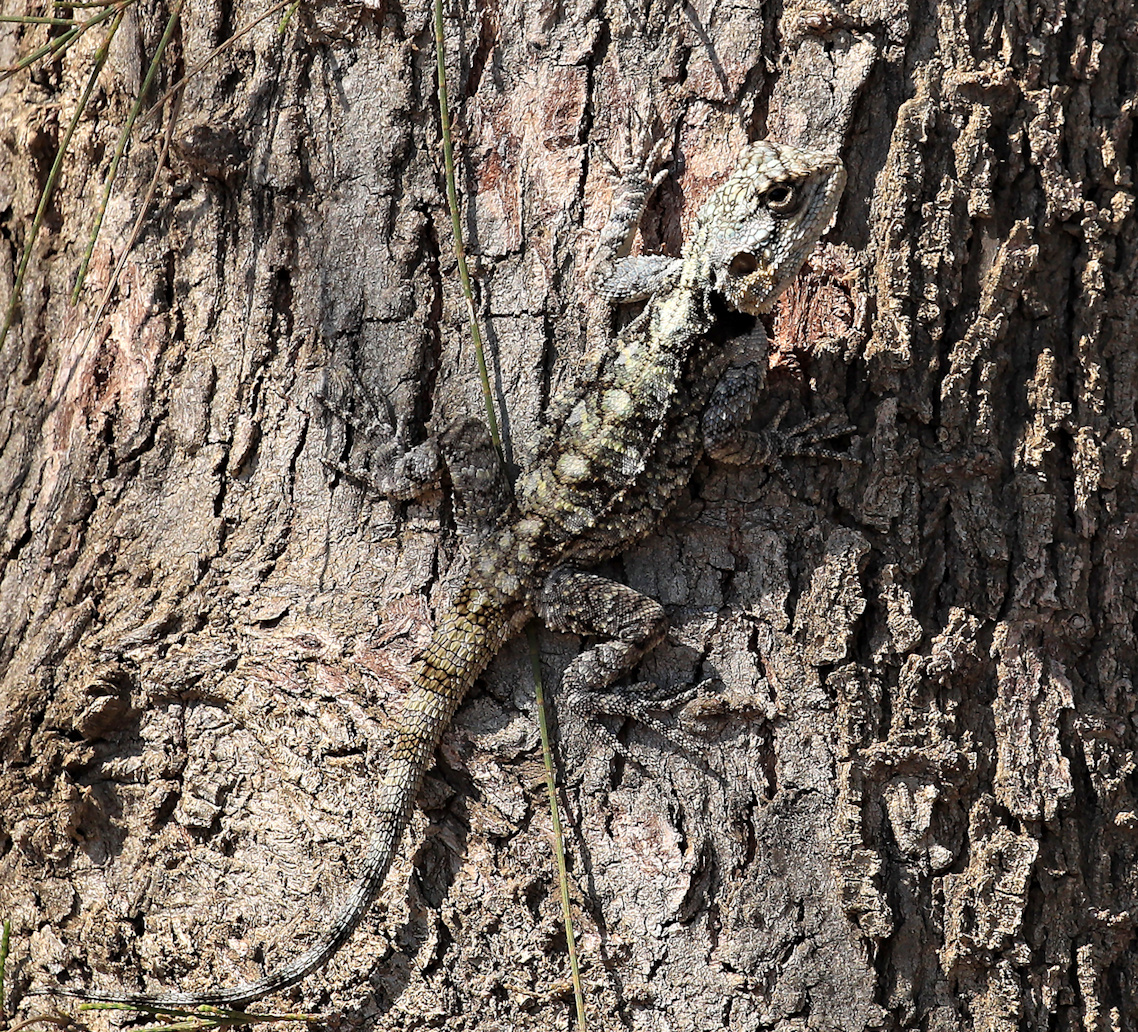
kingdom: Animalia
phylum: Chordata
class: Squamata
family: Agamidae
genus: Acanthocercus
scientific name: Acanthocercus atricollis
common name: Southern tree agama
